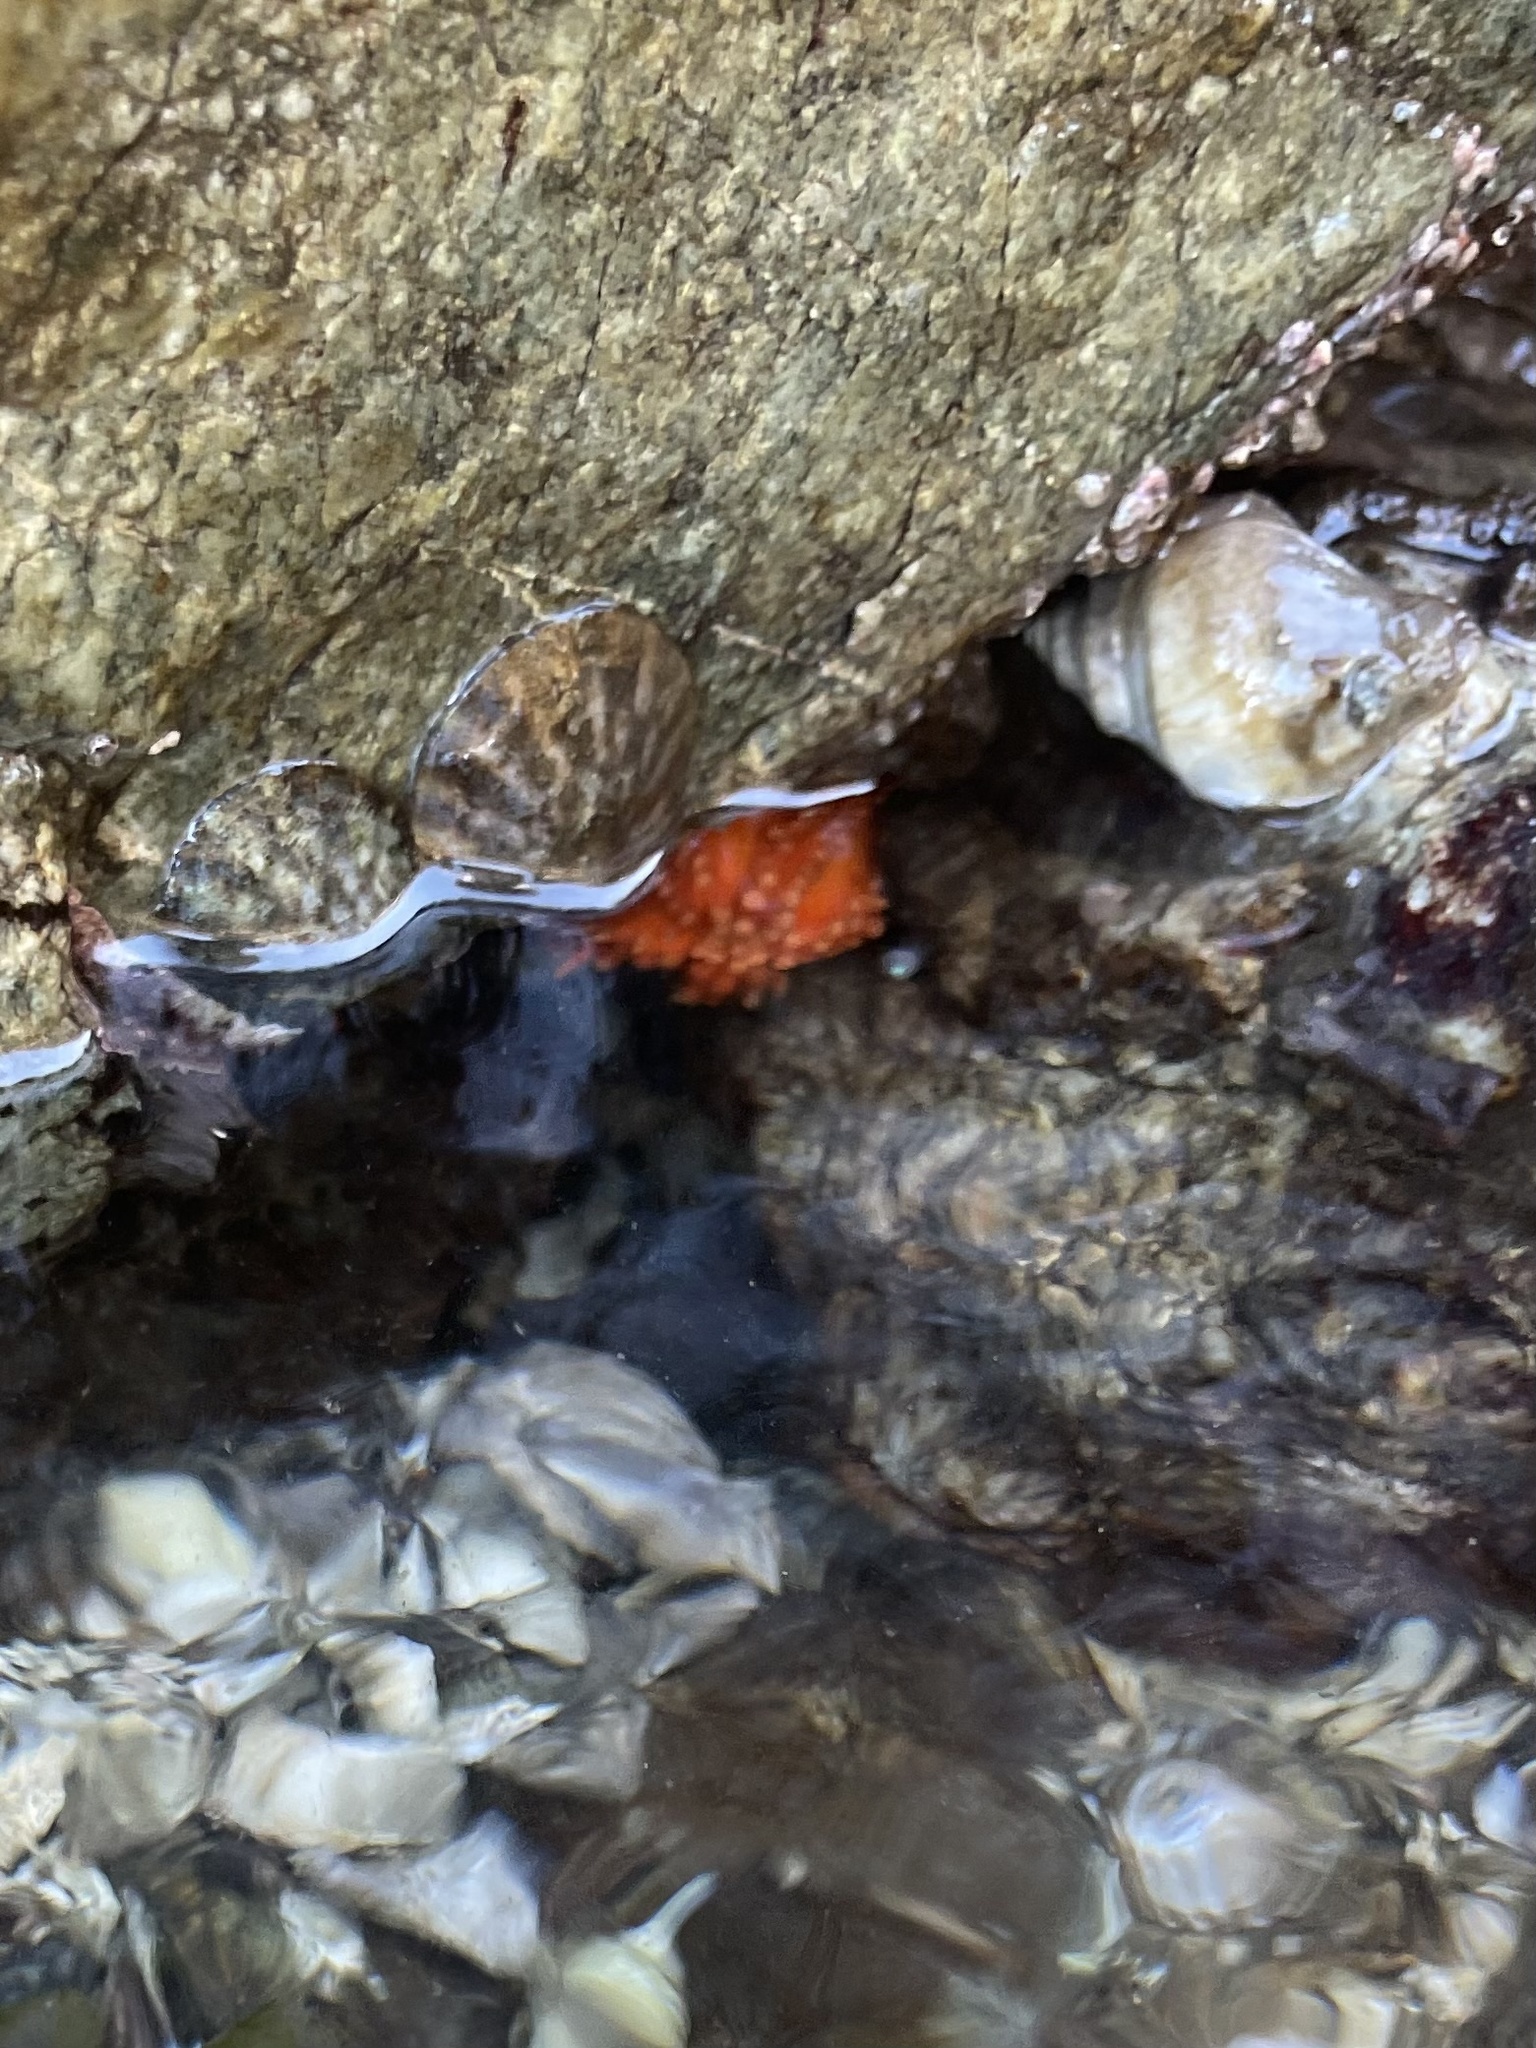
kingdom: Animalia
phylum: Echinodermata
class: Holothuroidea
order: Dendrochirotida
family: Cucumariidae
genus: Cucumaria
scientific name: Cucumaria miniata
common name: Orange sea cucumber
